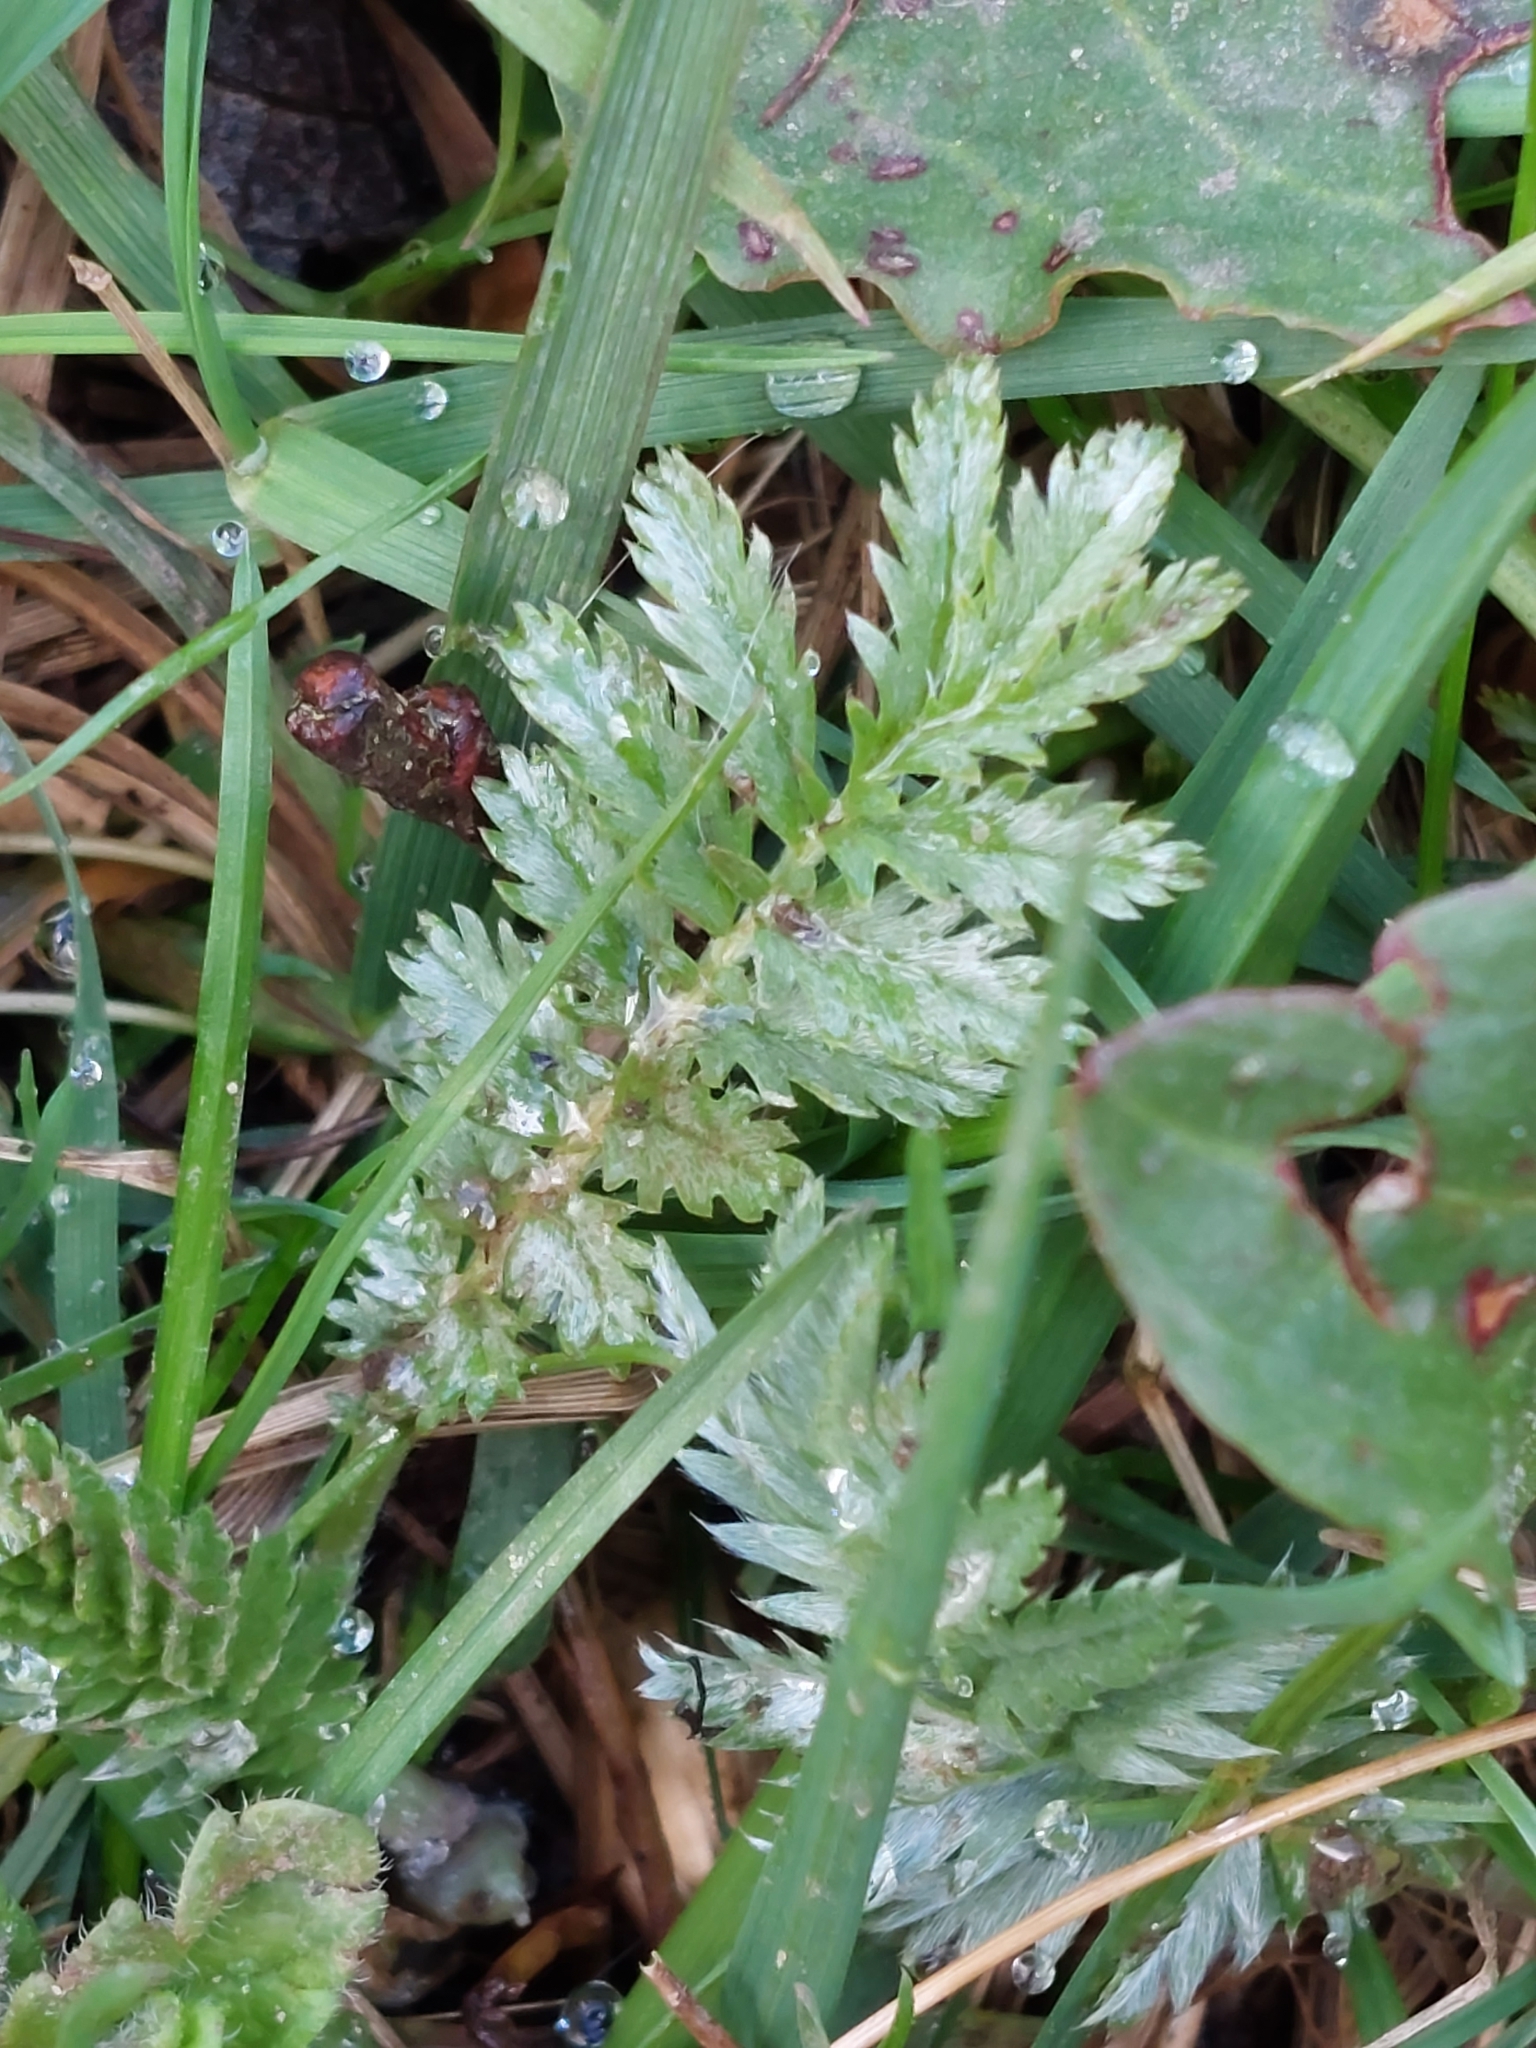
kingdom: Plantae
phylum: Tracheophyta
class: Magnoliopsida
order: Rosales
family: Rosaceae
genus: Argentina
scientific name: Argentina anserina
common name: Common silverweed
